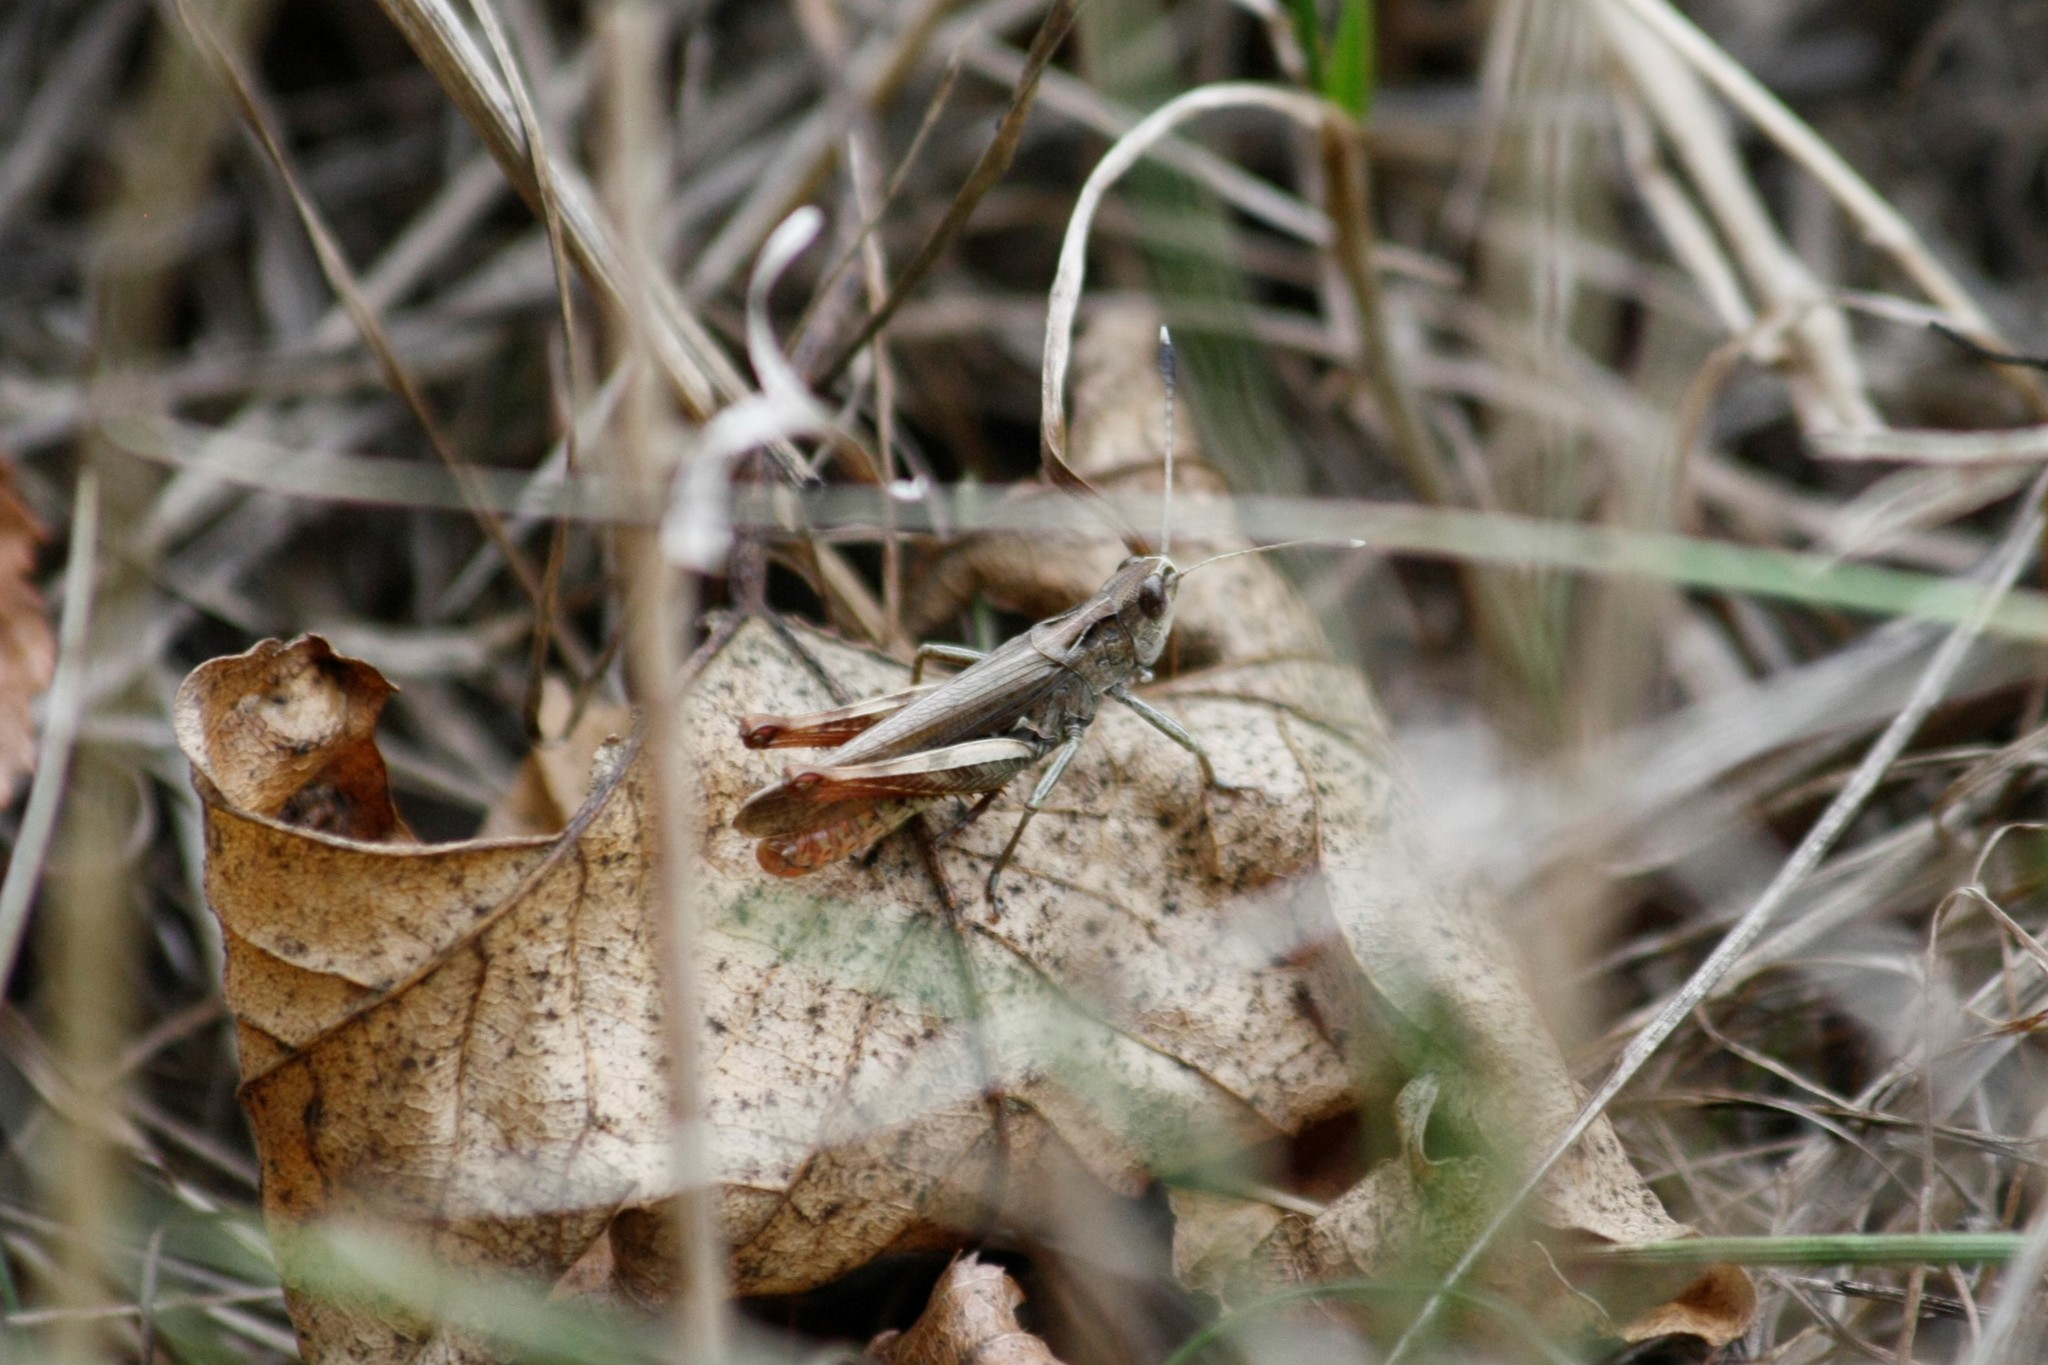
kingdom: Animalia
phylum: Arthropoda
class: Insecta
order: Orthoptera
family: Acrididae
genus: Gomphocerippus
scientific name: Gomphocerippus rufus
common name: Rufous grasshopper
